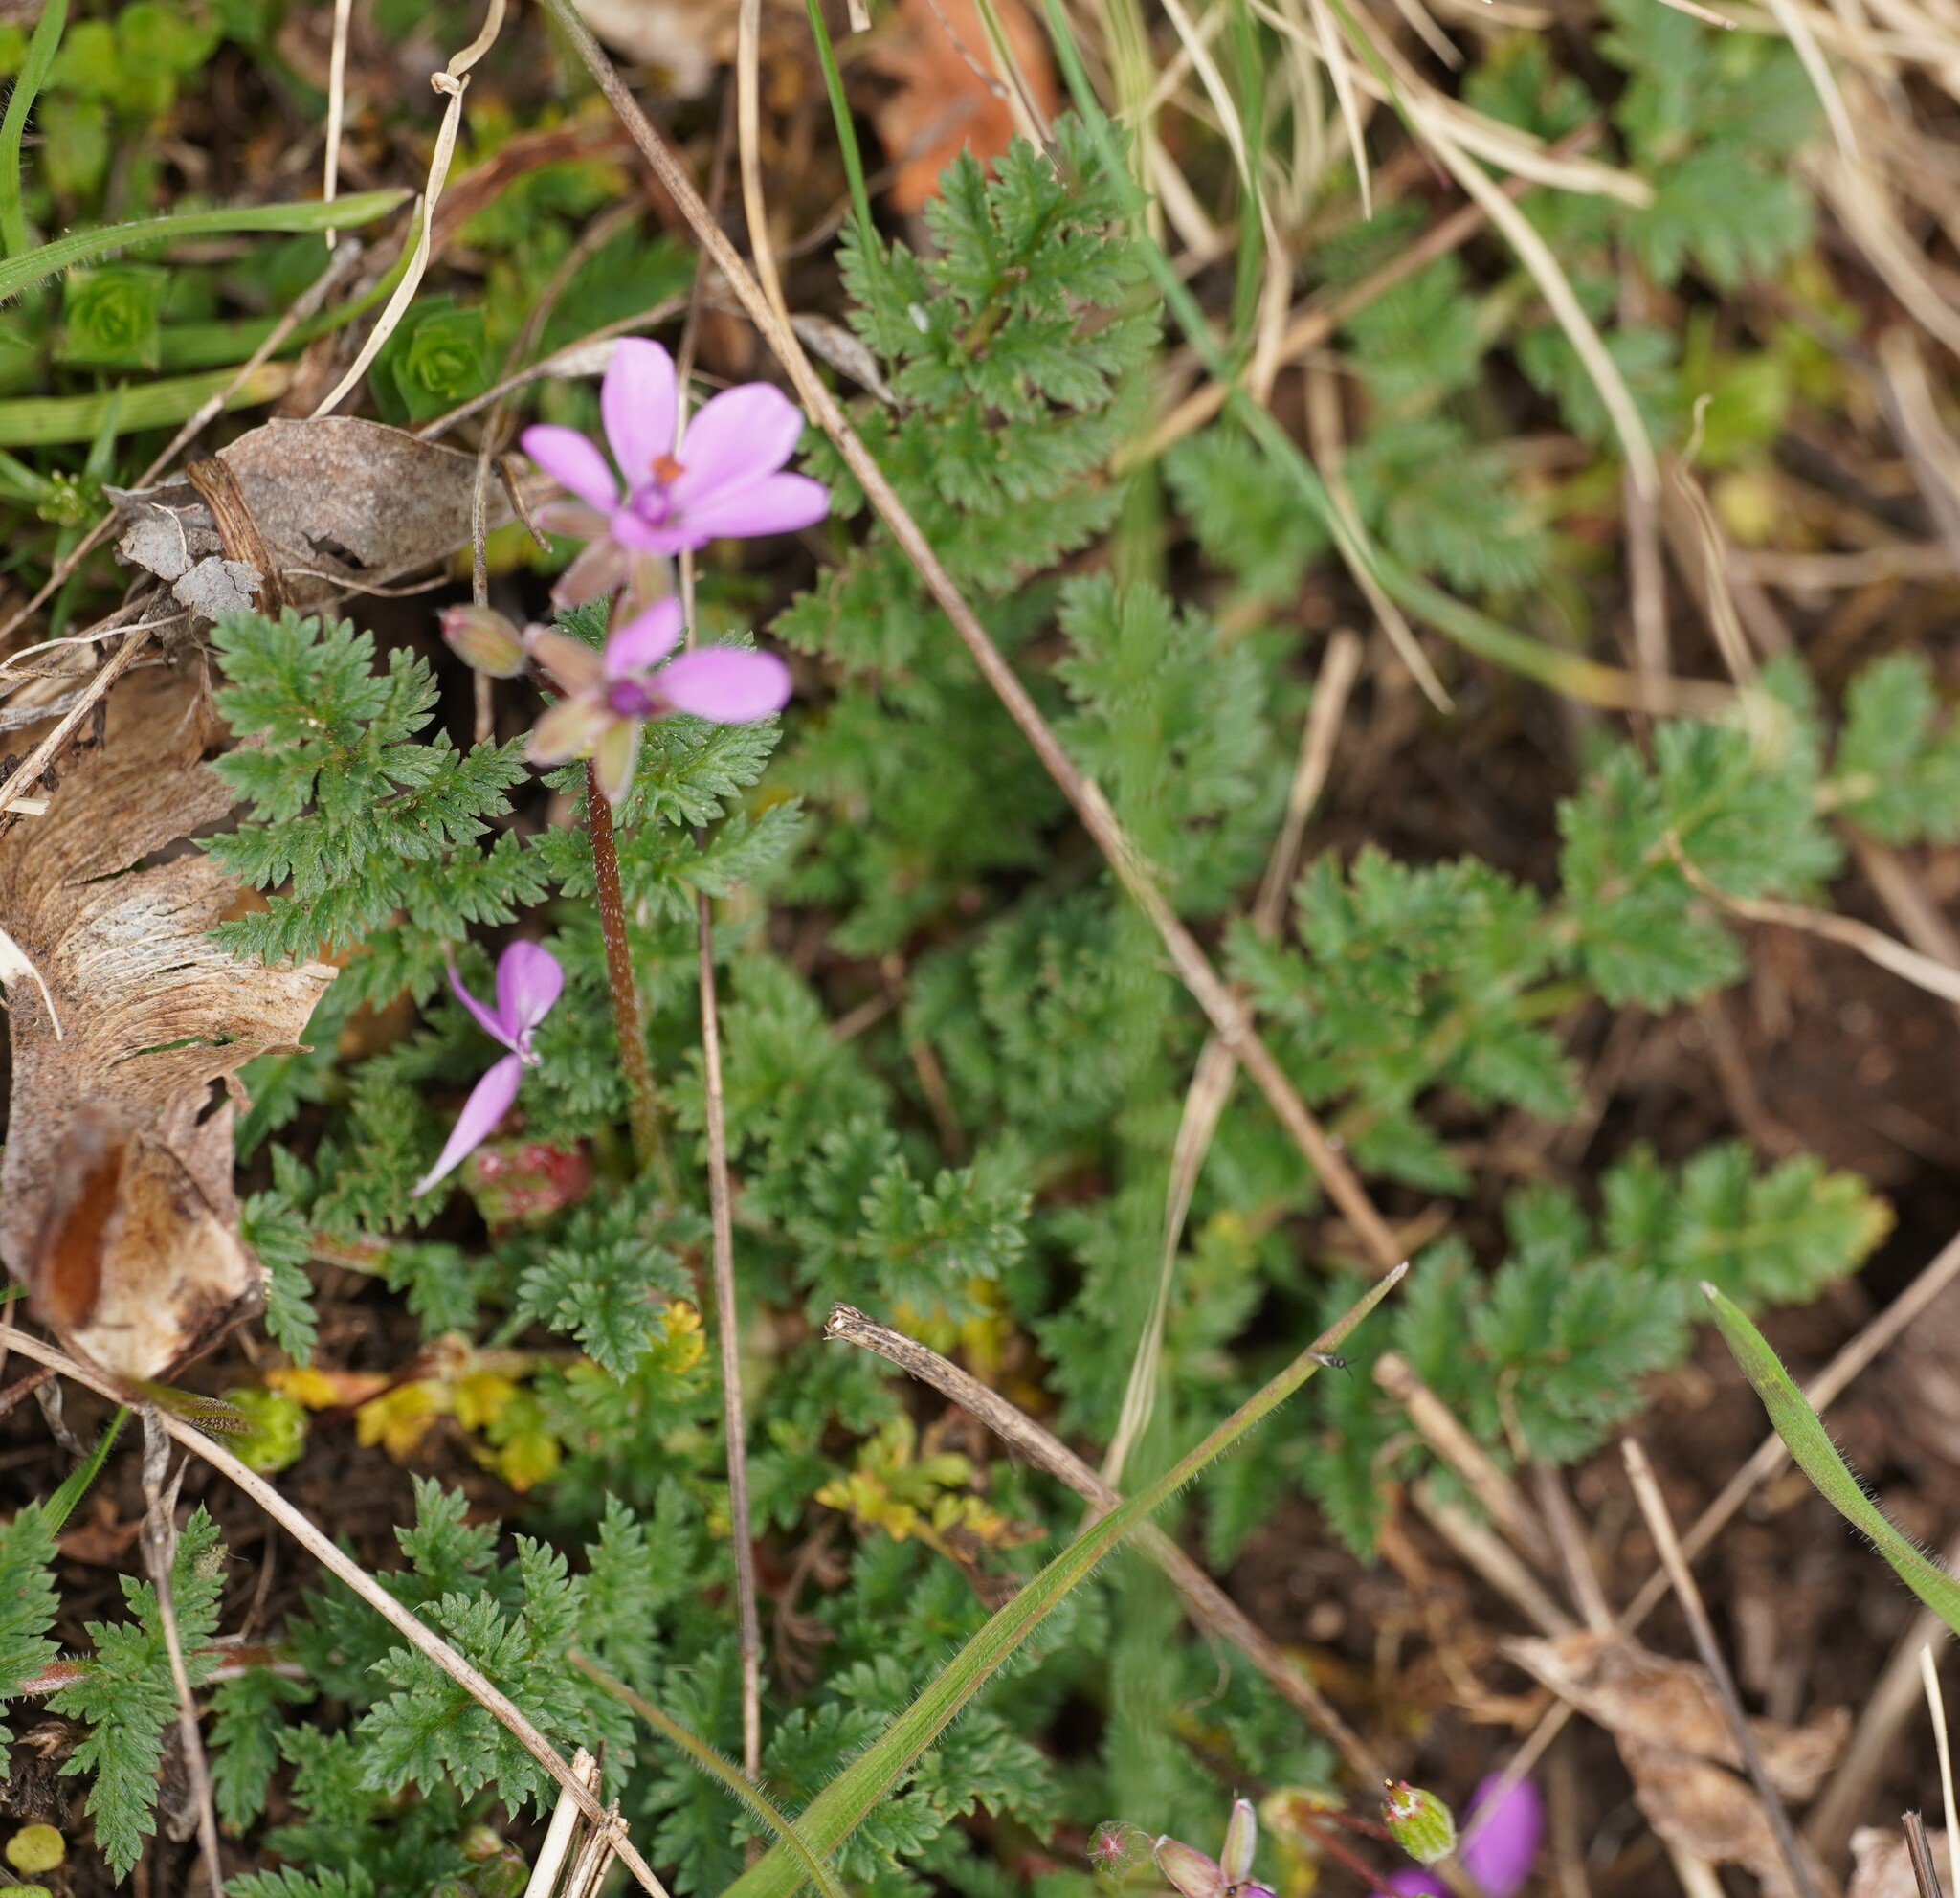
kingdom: Plantae
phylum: Tracheophyta
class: Magnoliopsida
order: Geraniales
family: Geraniaceae
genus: Erodium
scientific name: Erodium cicutarium
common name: Common stork's-bill
